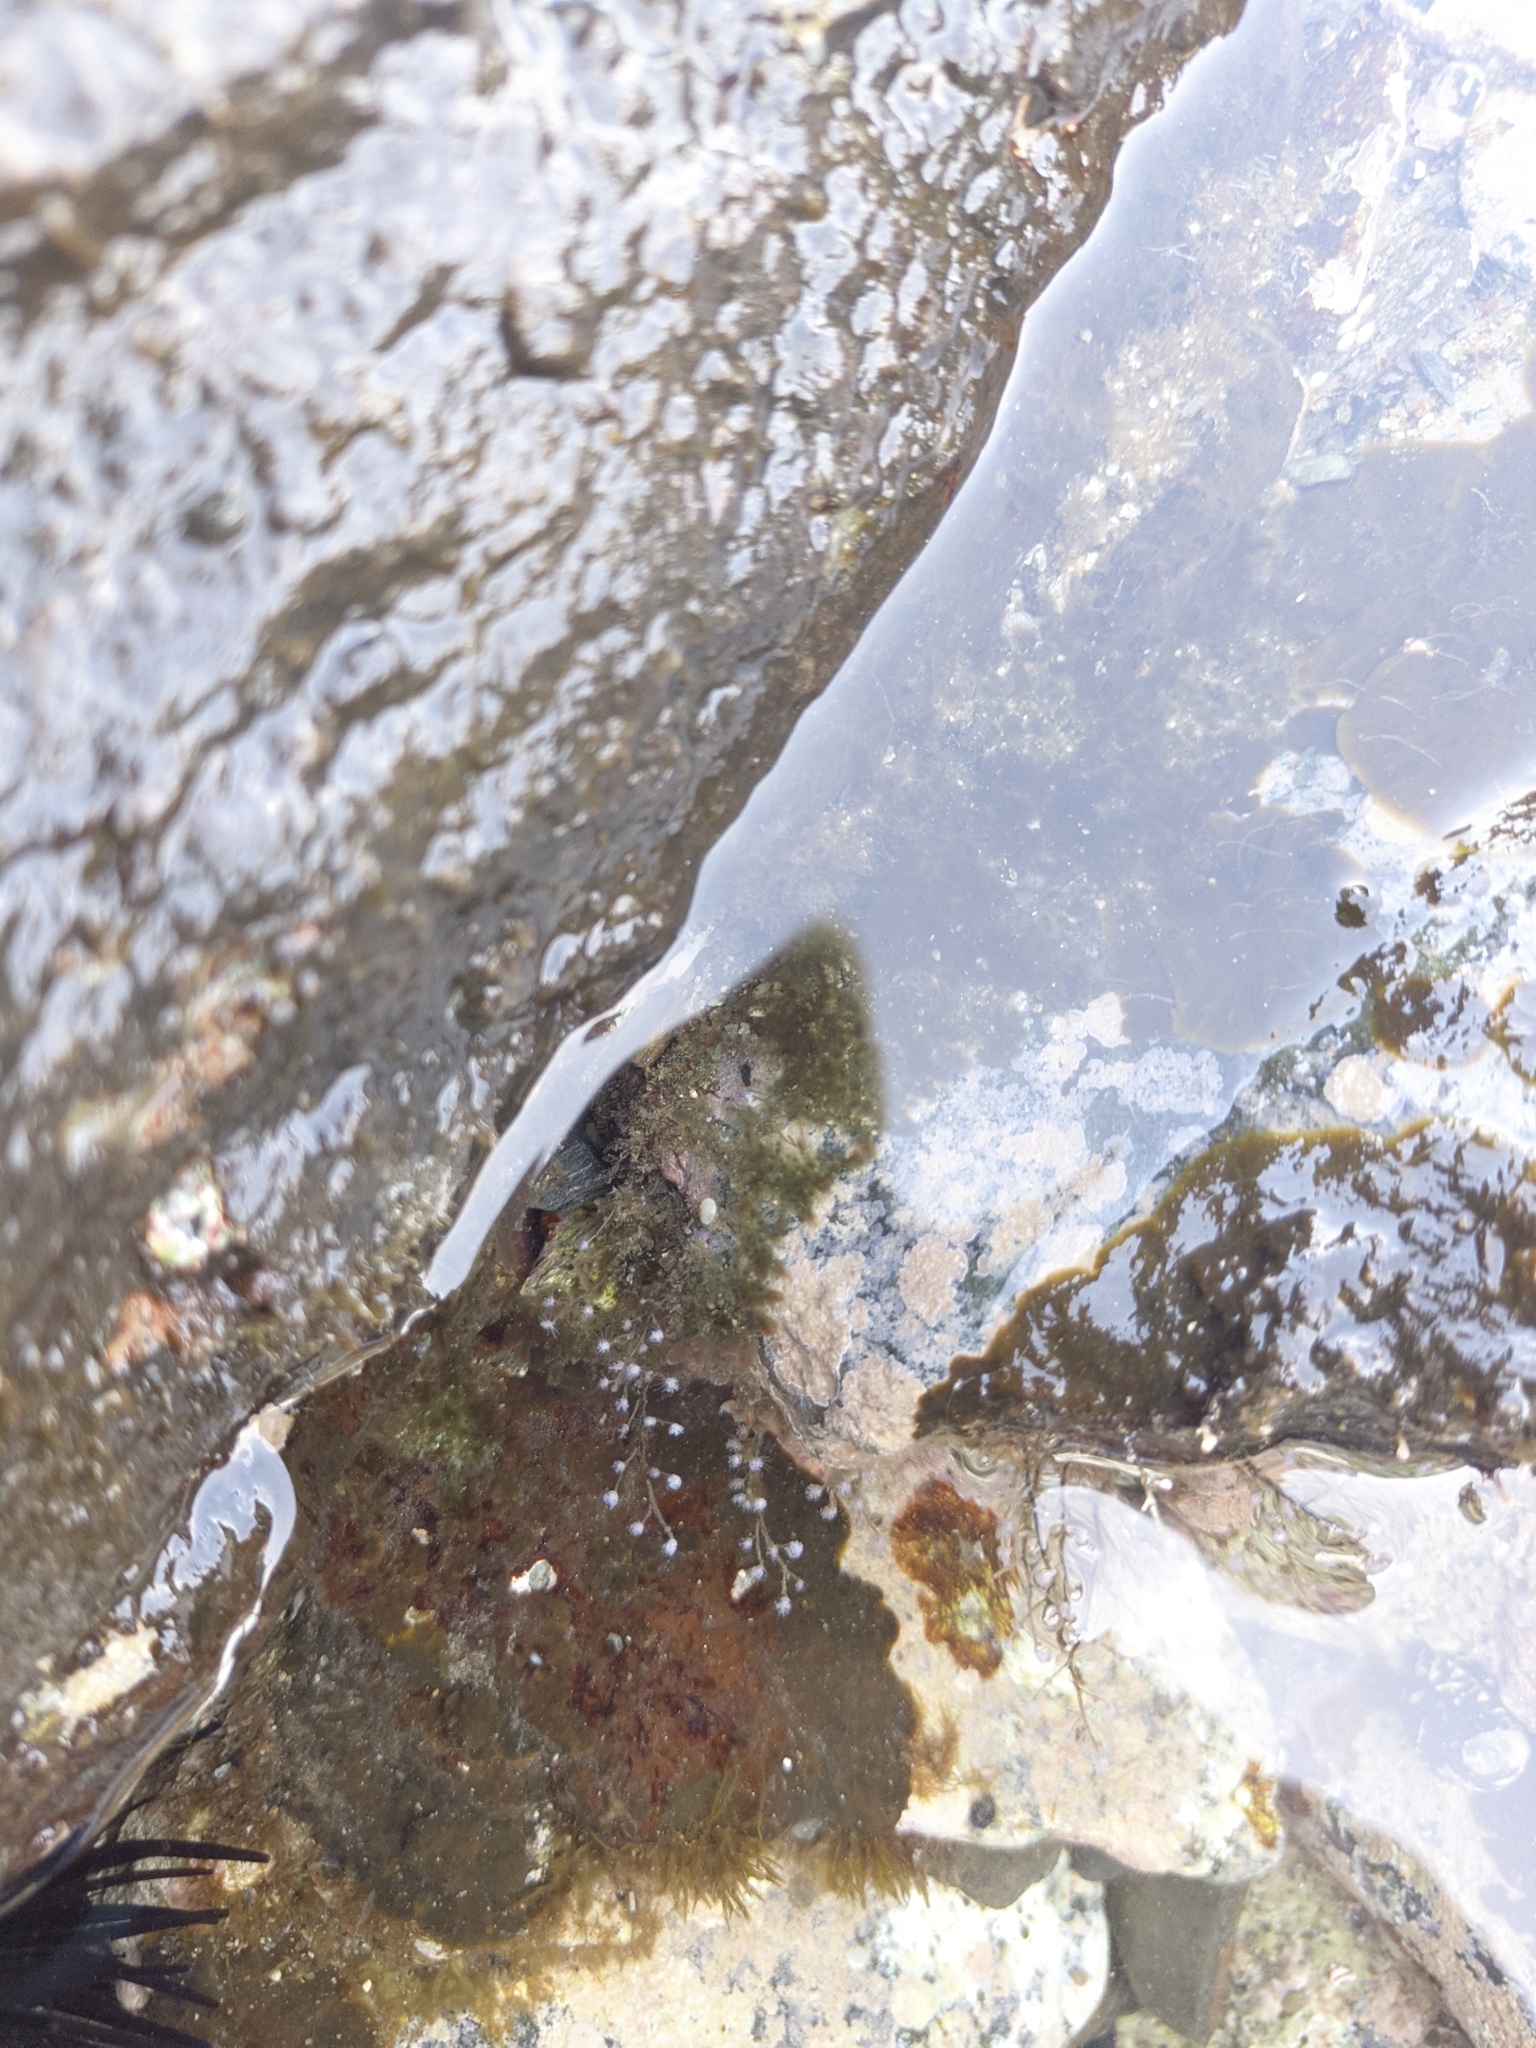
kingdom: Animalia
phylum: Cnidaria
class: Hydrozoa
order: Anthoathecata
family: Pennariidae
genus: Pennaria
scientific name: Pennaria disticha
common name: Feather hydroid
